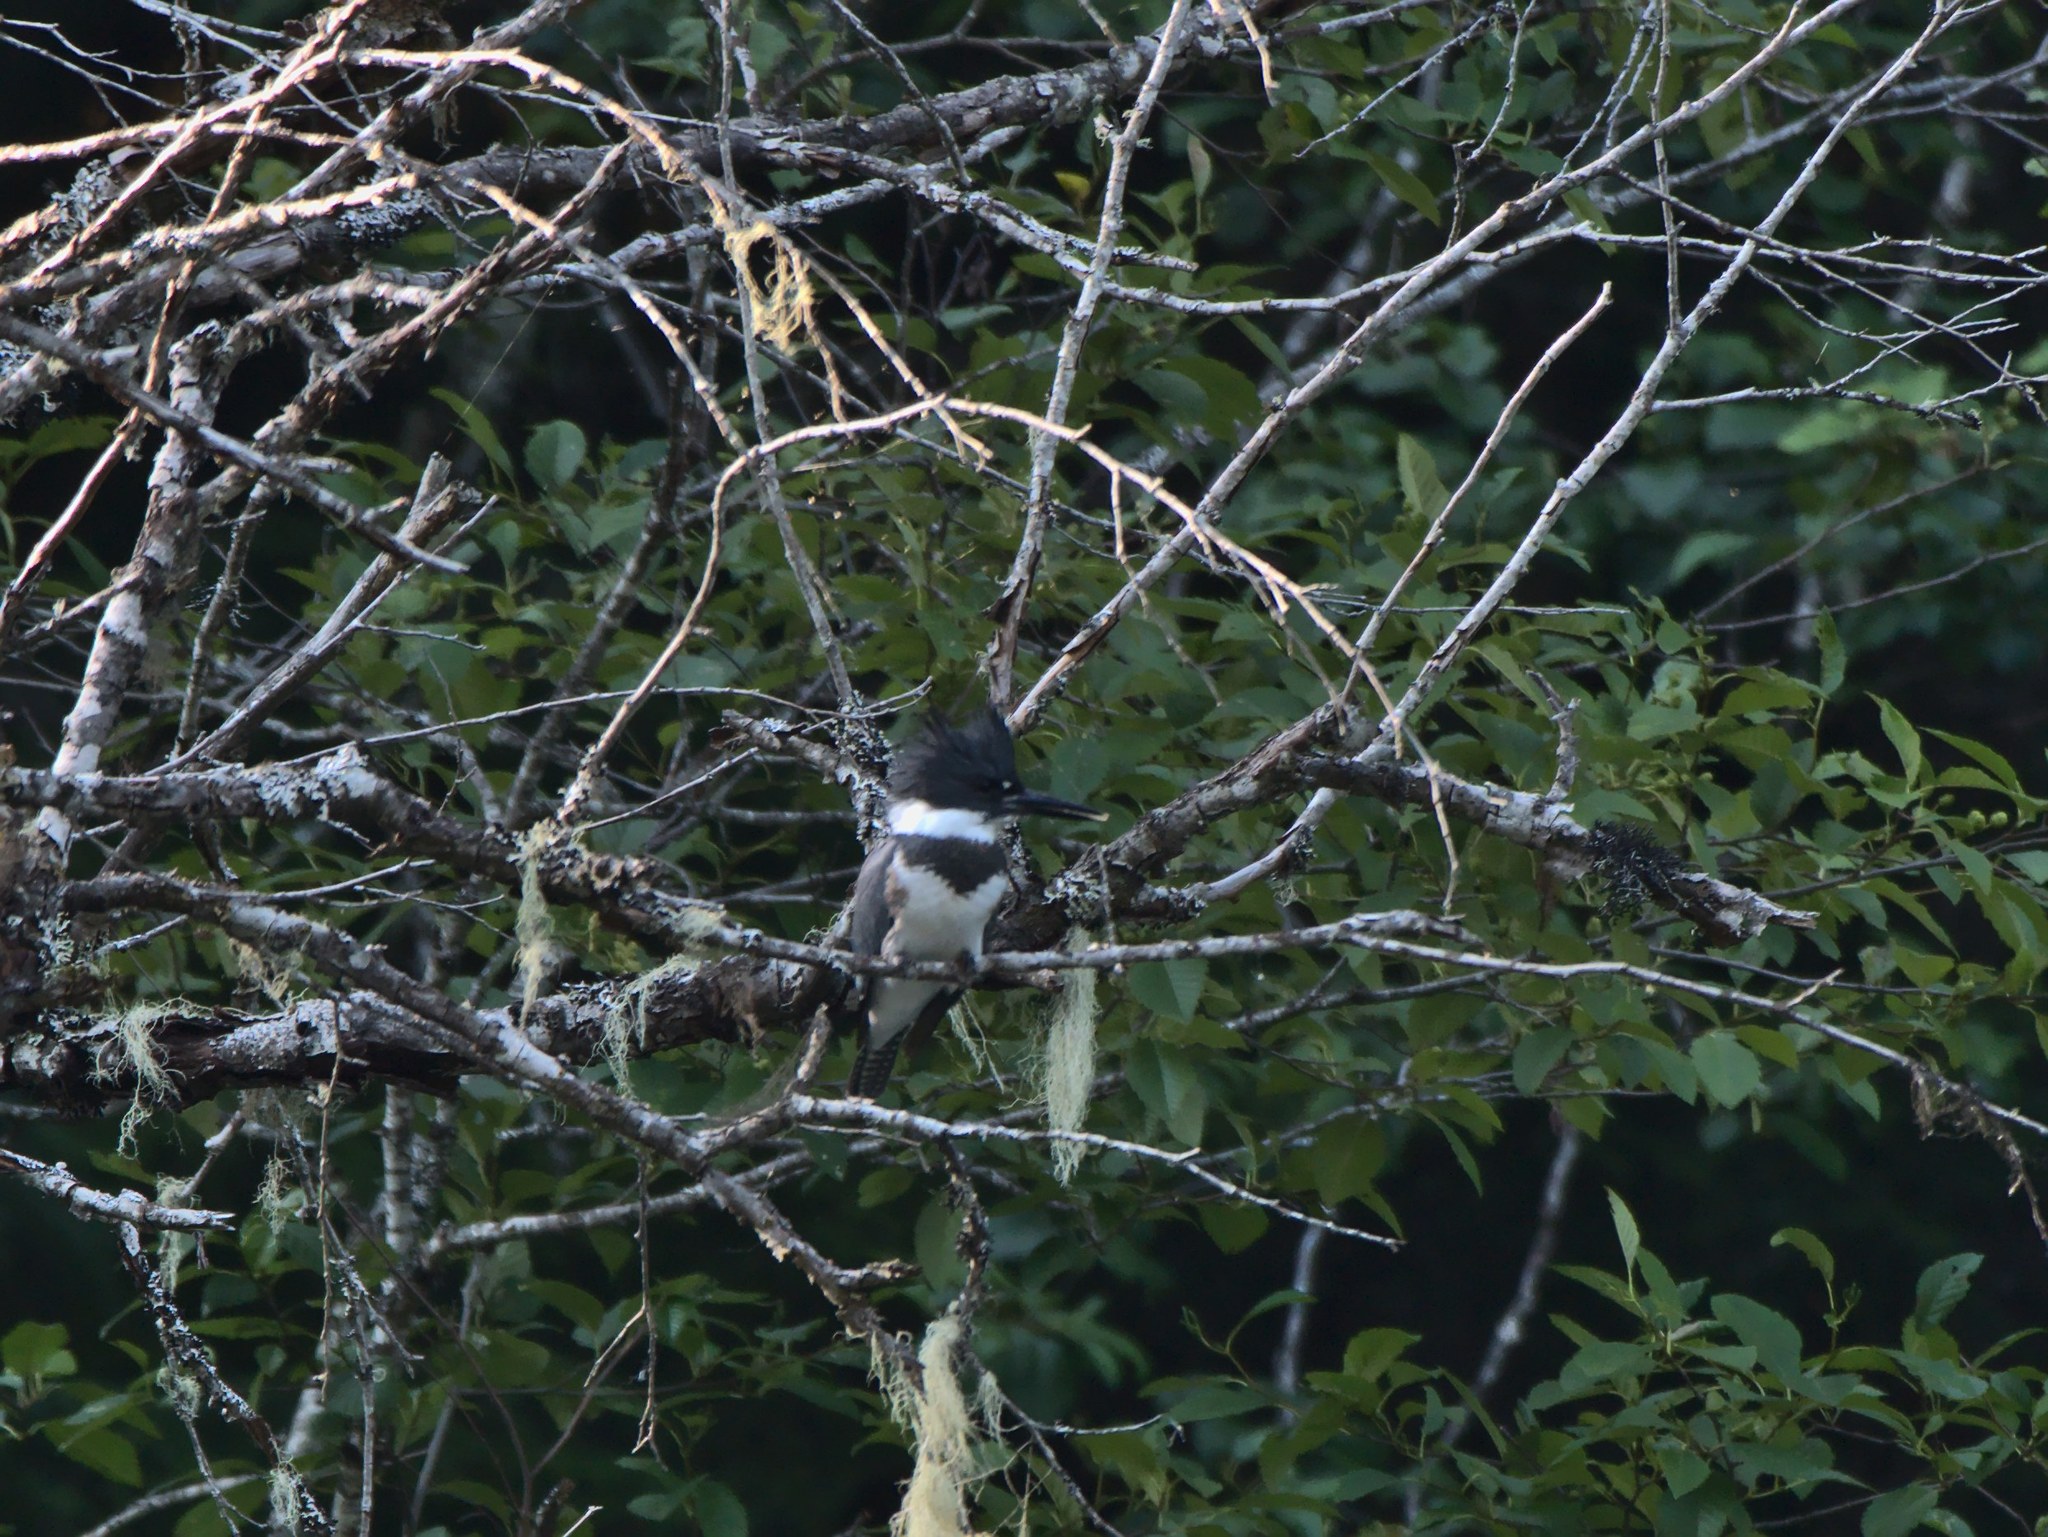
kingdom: Animalia
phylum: Chordata
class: Aves
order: Coraciiformes
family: Alcedinidae
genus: Megaceryle
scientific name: Megaceryle alcyon
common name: Belted kingfisher
